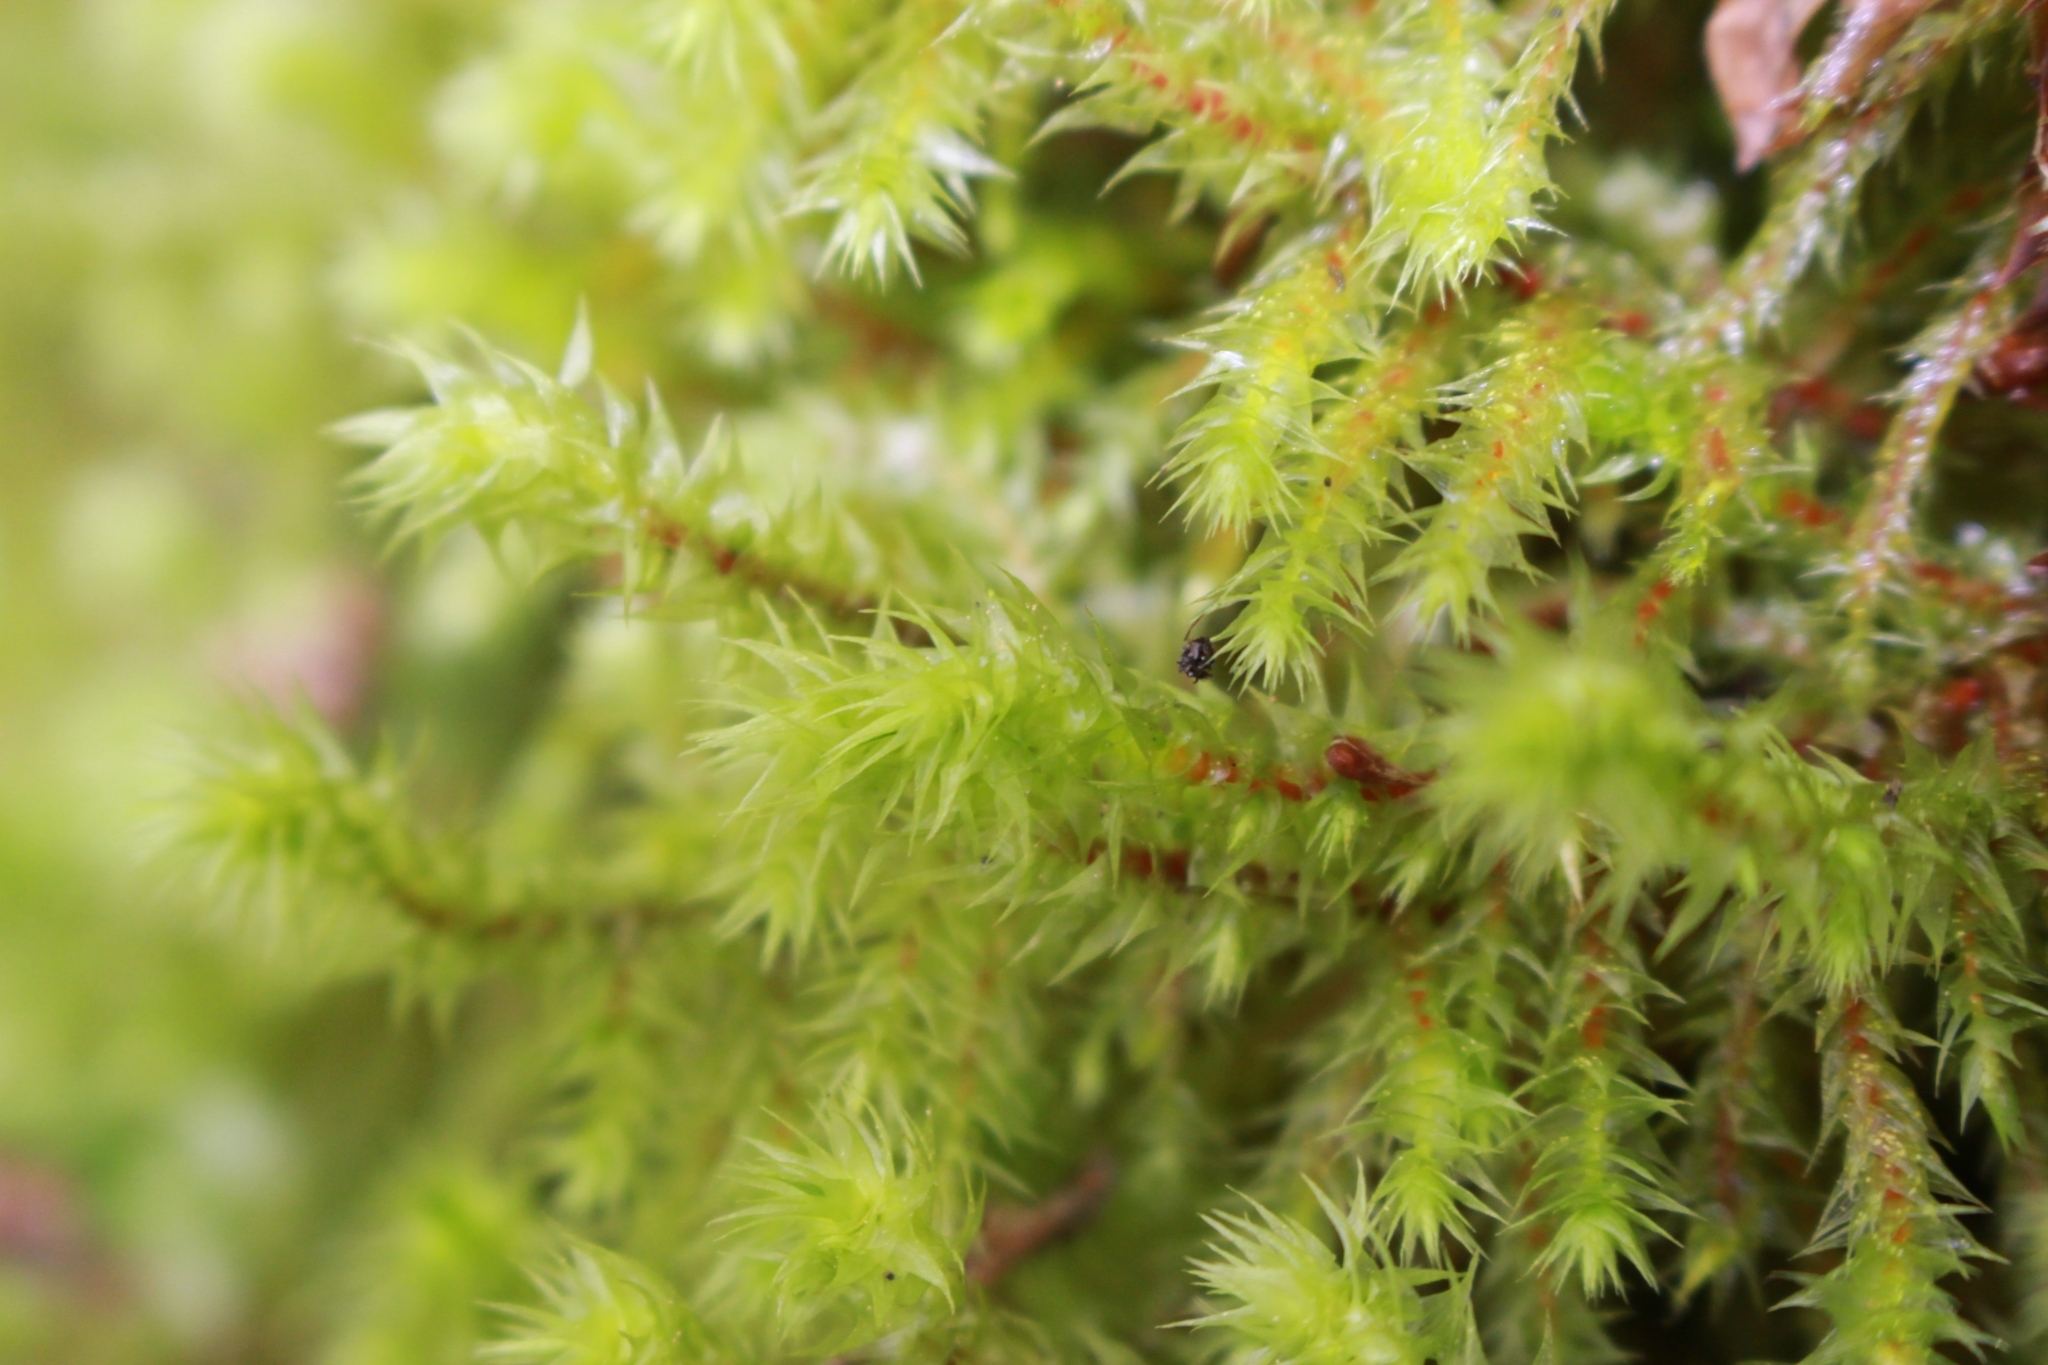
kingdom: Plantae
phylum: Bryophyta
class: Bryopsida
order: Hypnales
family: Hylocomiaceae
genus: Hylocomiadelphus
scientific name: Hylocomiadelphus triquetrus
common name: Rough goose neck moss
